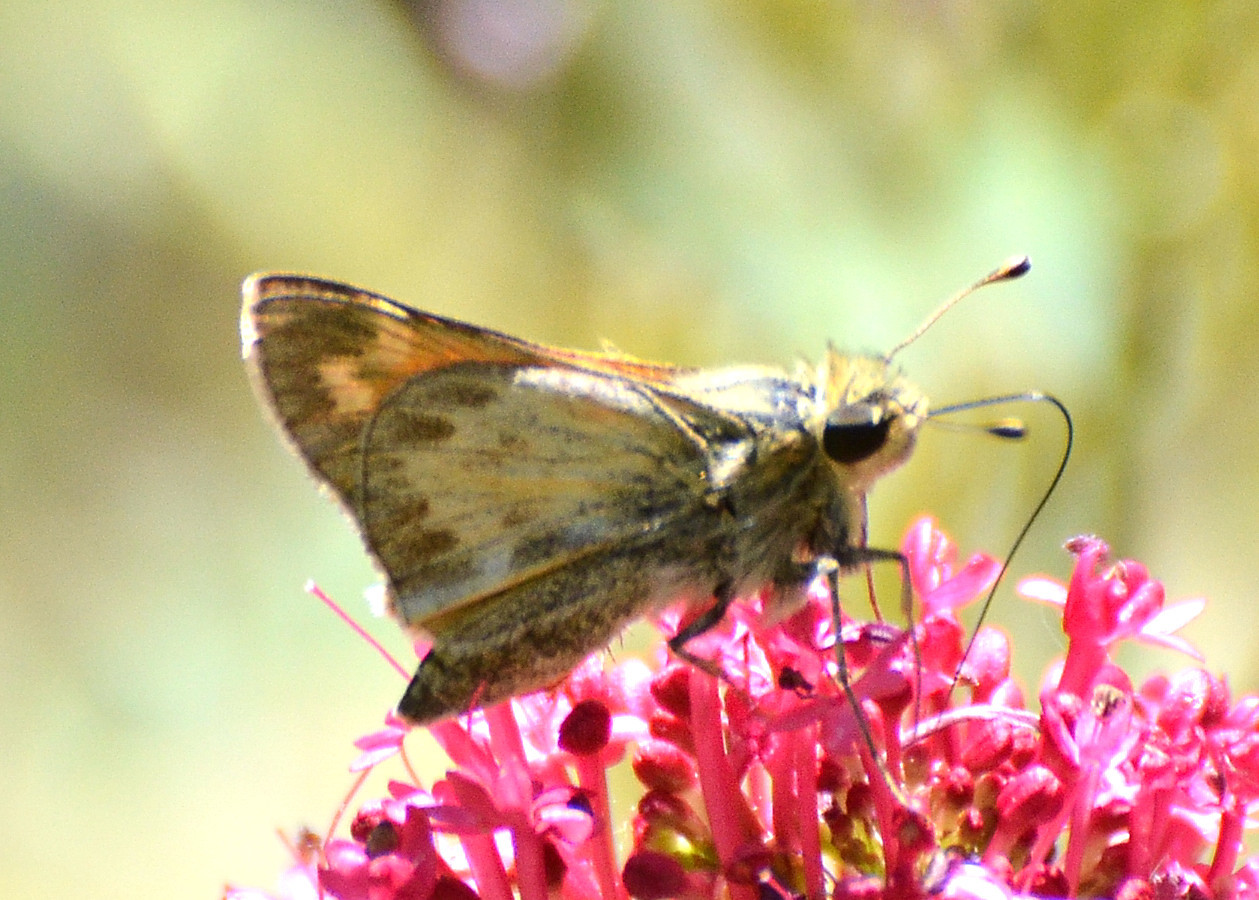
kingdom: Animalia
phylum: Arthropoda
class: Insecta
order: Lepidoptera
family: Hesperiidae
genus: Atalopedes
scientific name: Atalopedes campestris
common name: Sachem
